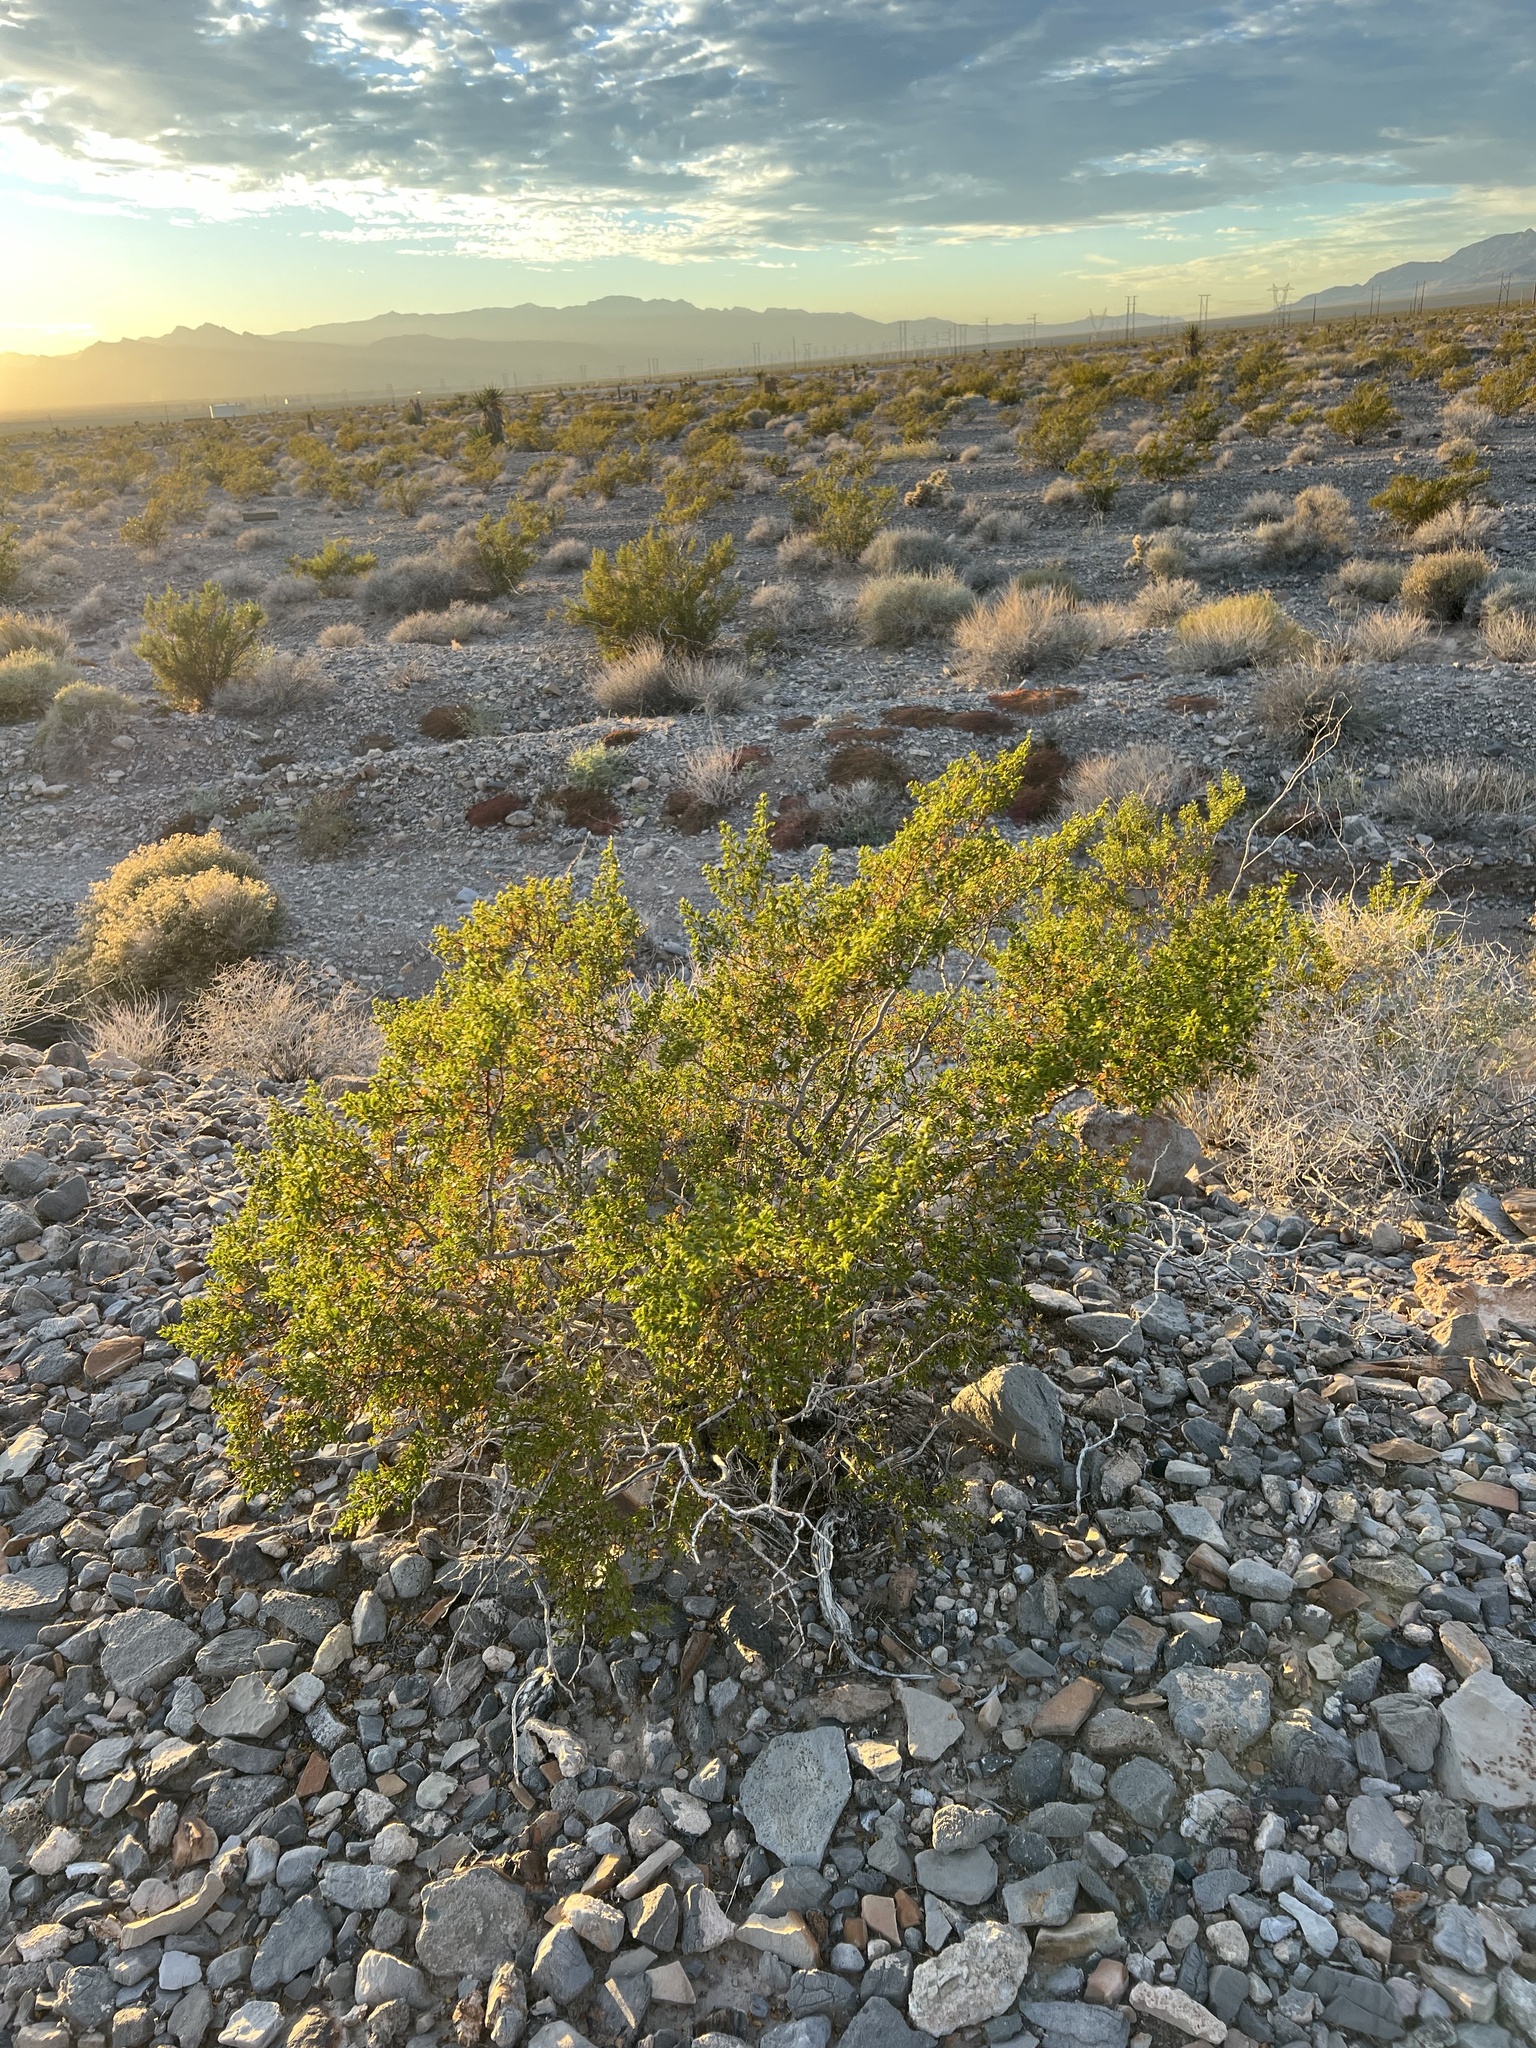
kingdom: Plantae
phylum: Tracheophyta
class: Magnoliopsida
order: Zygophyllales
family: Zygophyllaceae
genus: Larrea
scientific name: Larrea tridentata
